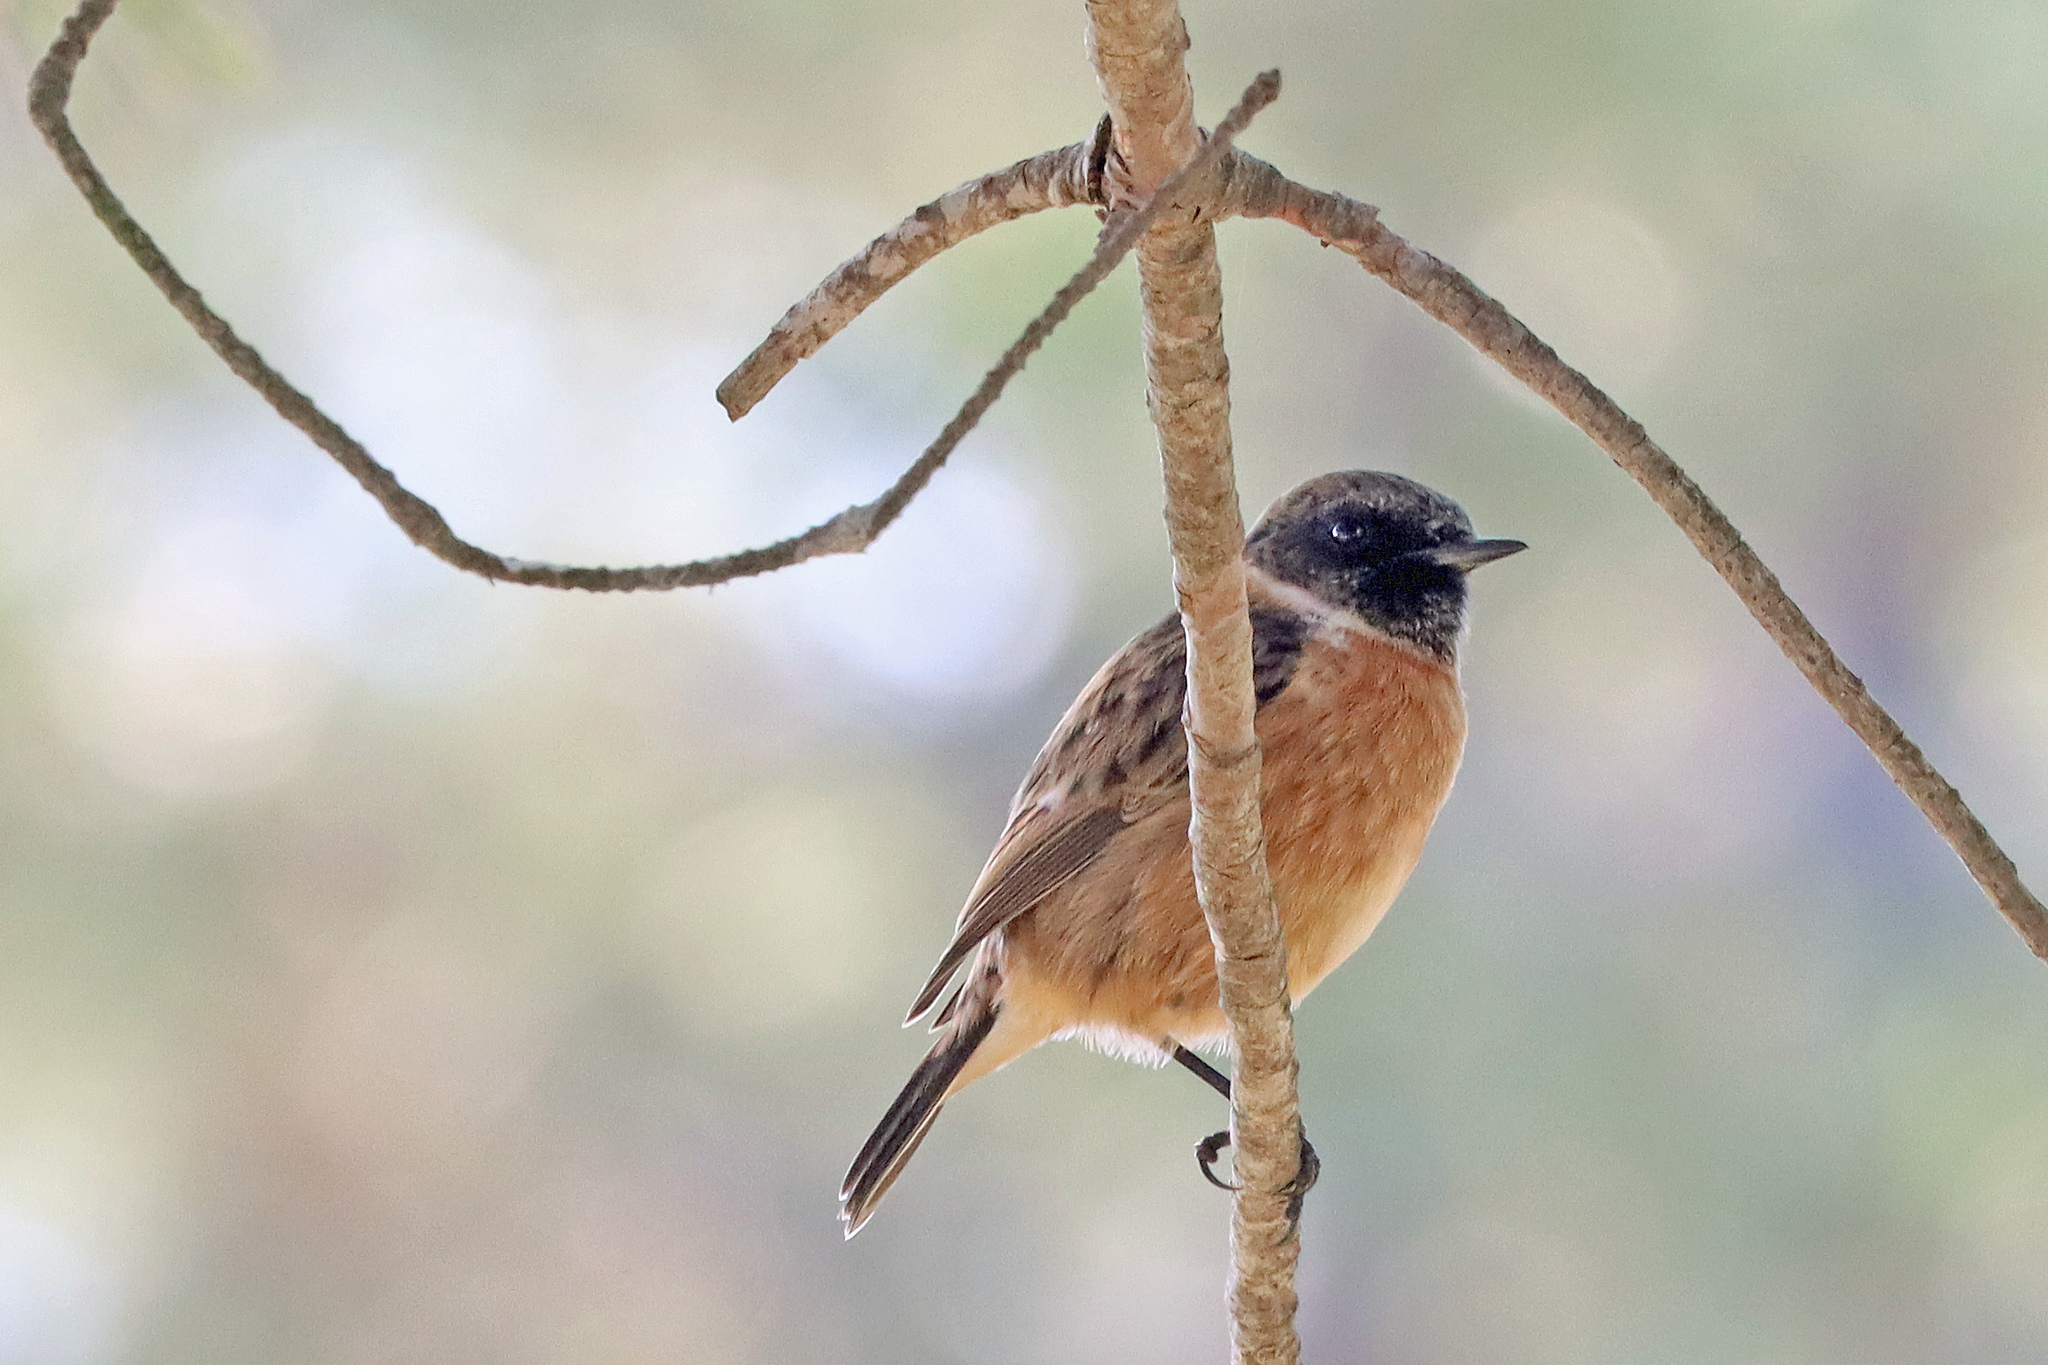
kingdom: Animalia
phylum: Chordata
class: Aves
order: Passeriformes
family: Muscicapidae
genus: Saxicola
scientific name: Saxicola rubicola
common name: European stonechat
